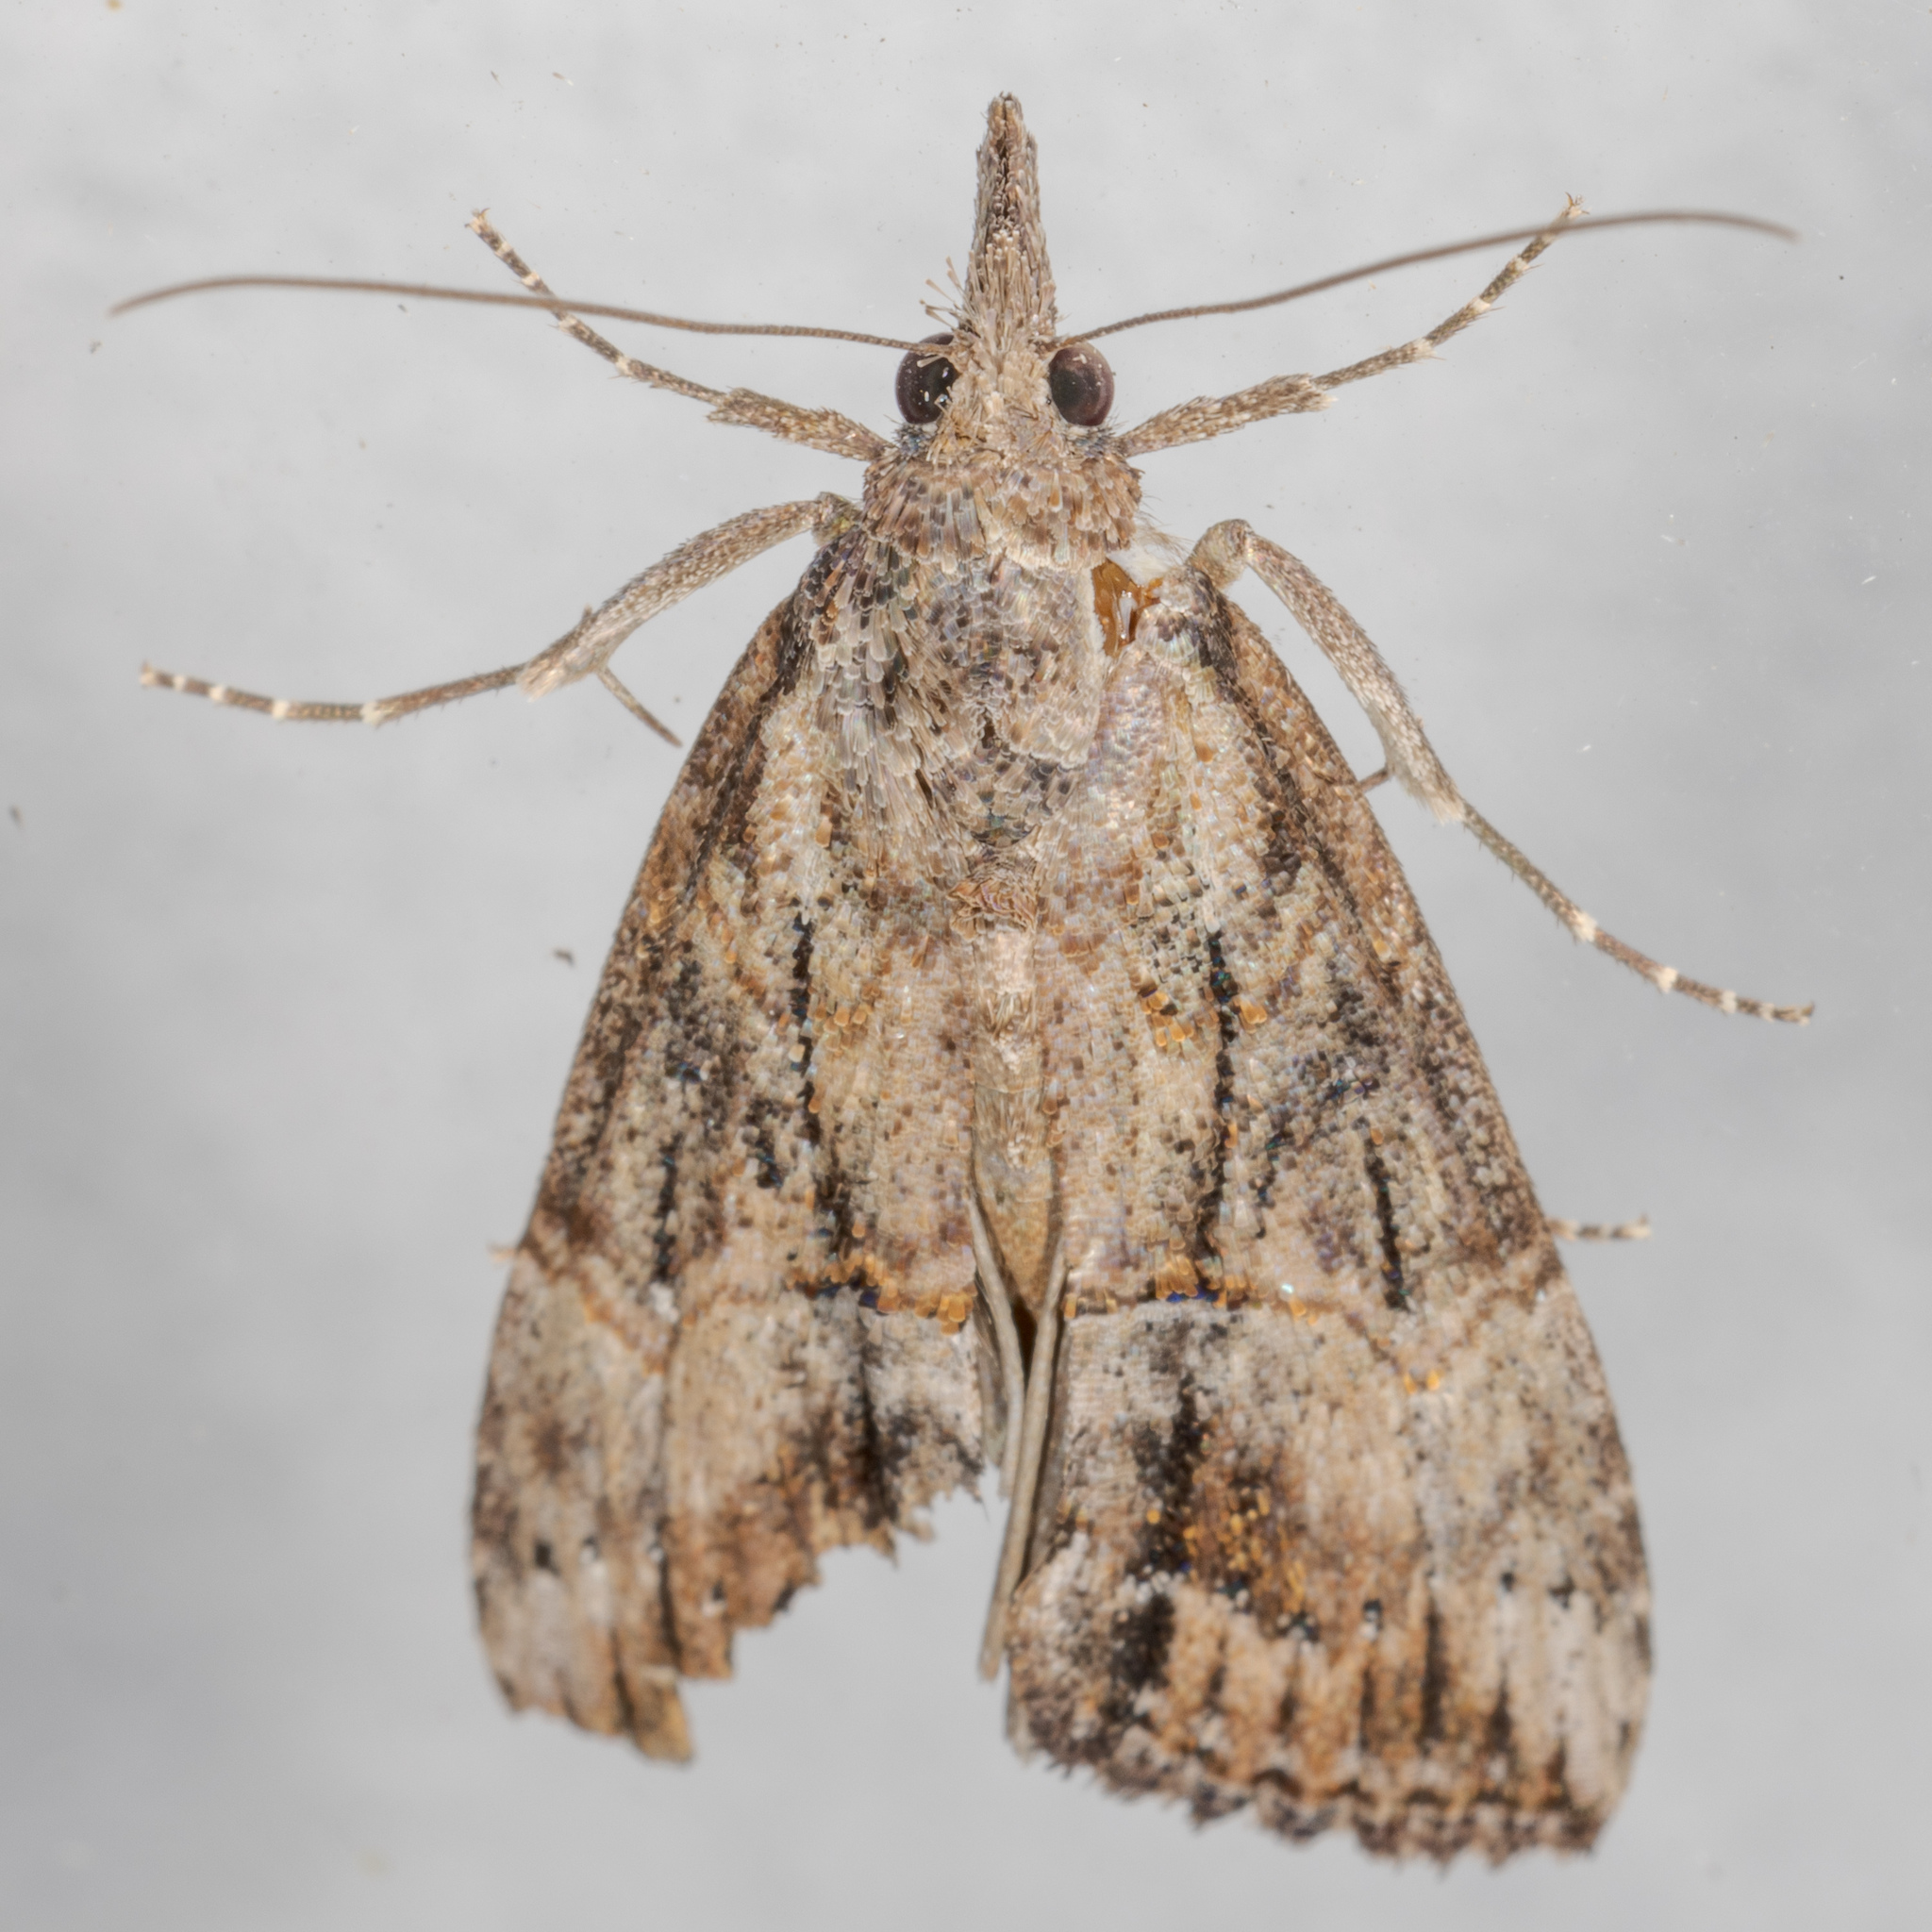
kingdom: Animalia
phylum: Arthropoda
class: Insecta
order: Lepidoptera
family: Erebidae
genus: Hypena
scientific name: Hypena scabra
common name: Green cloverworm
